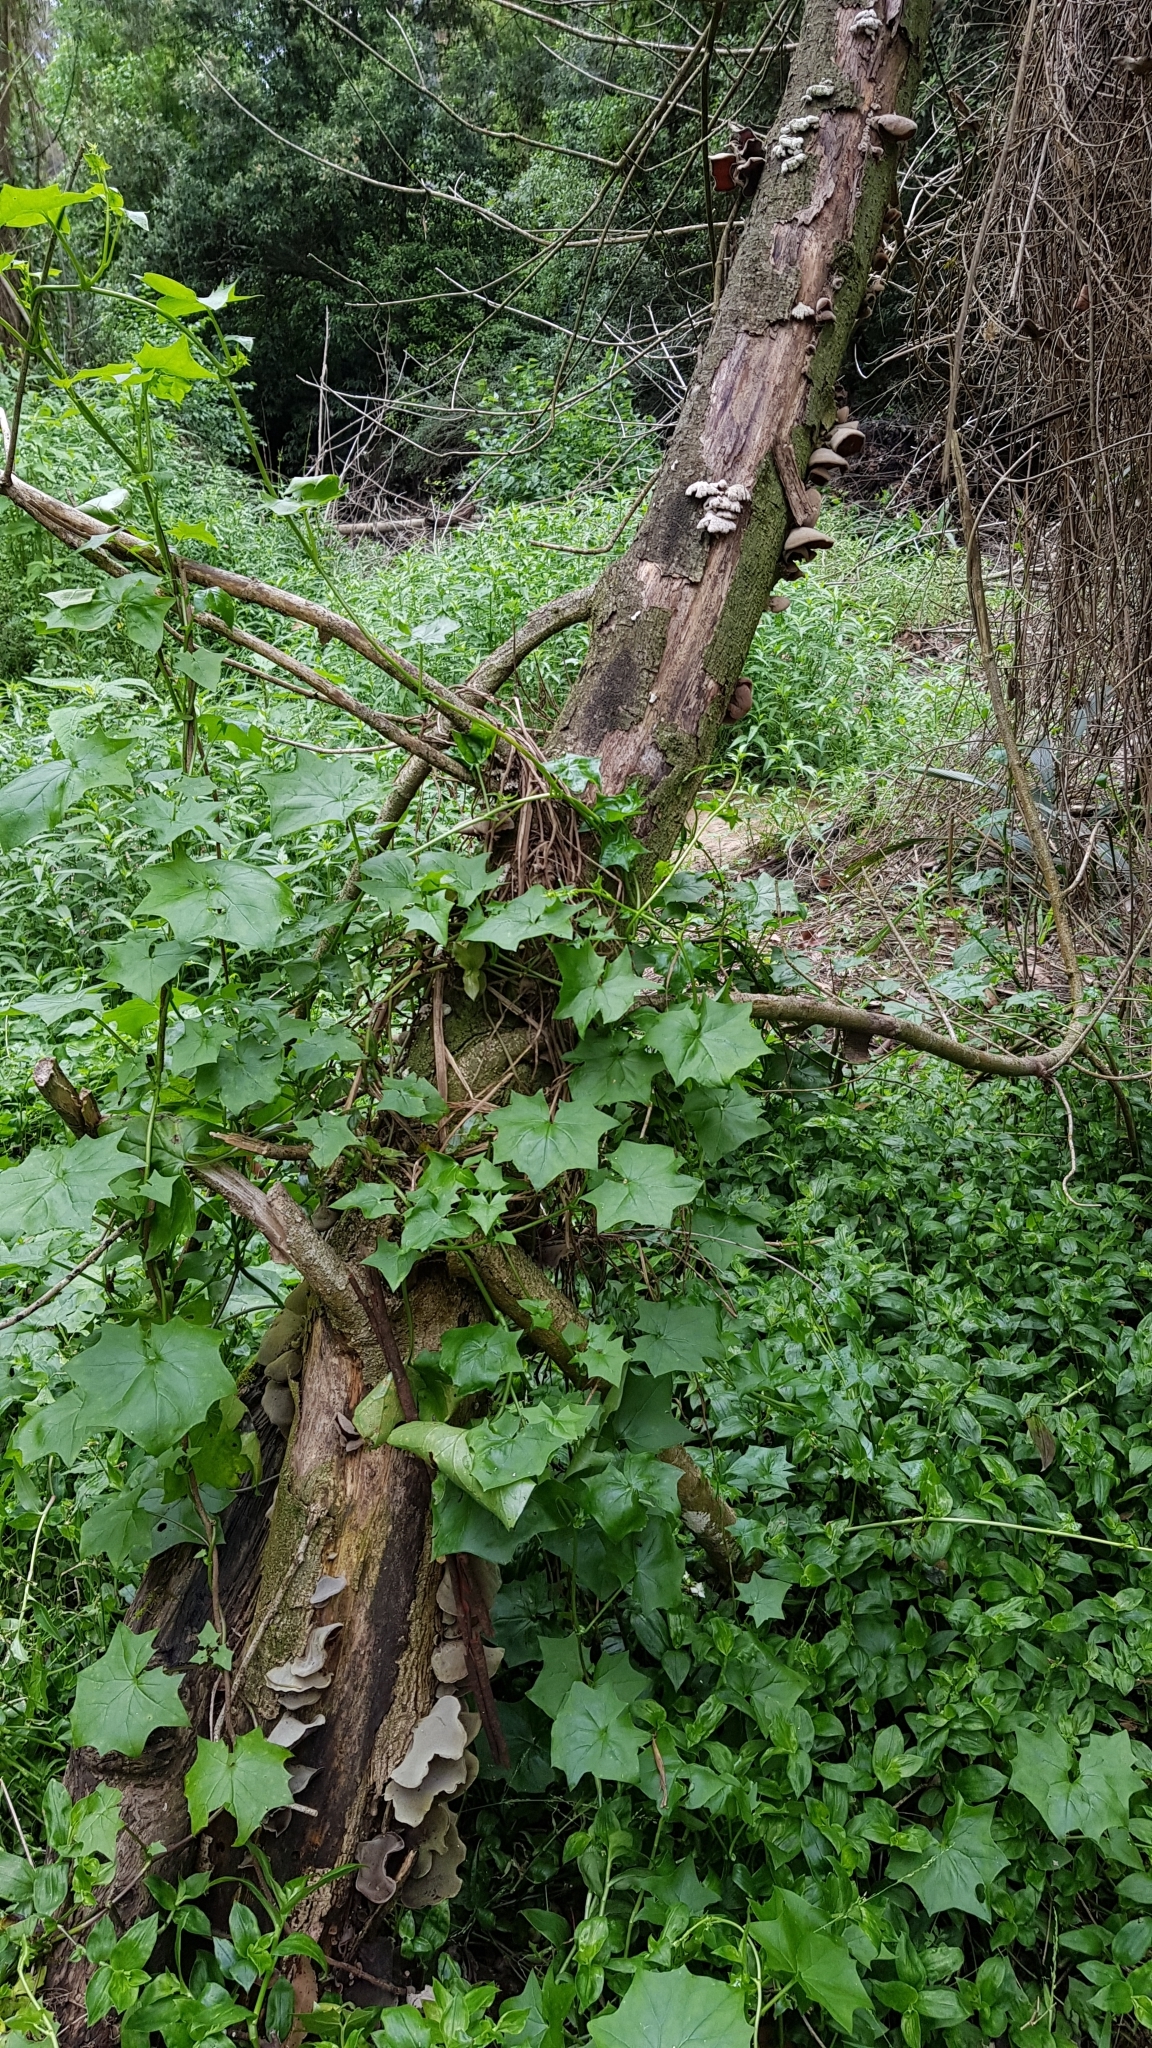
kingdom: Fungi
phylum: Basidiomycota
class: Agaricomycetes
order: Auriculariales
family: Auriculariaceae
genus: Auricularia
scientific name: Auricularia cornea
